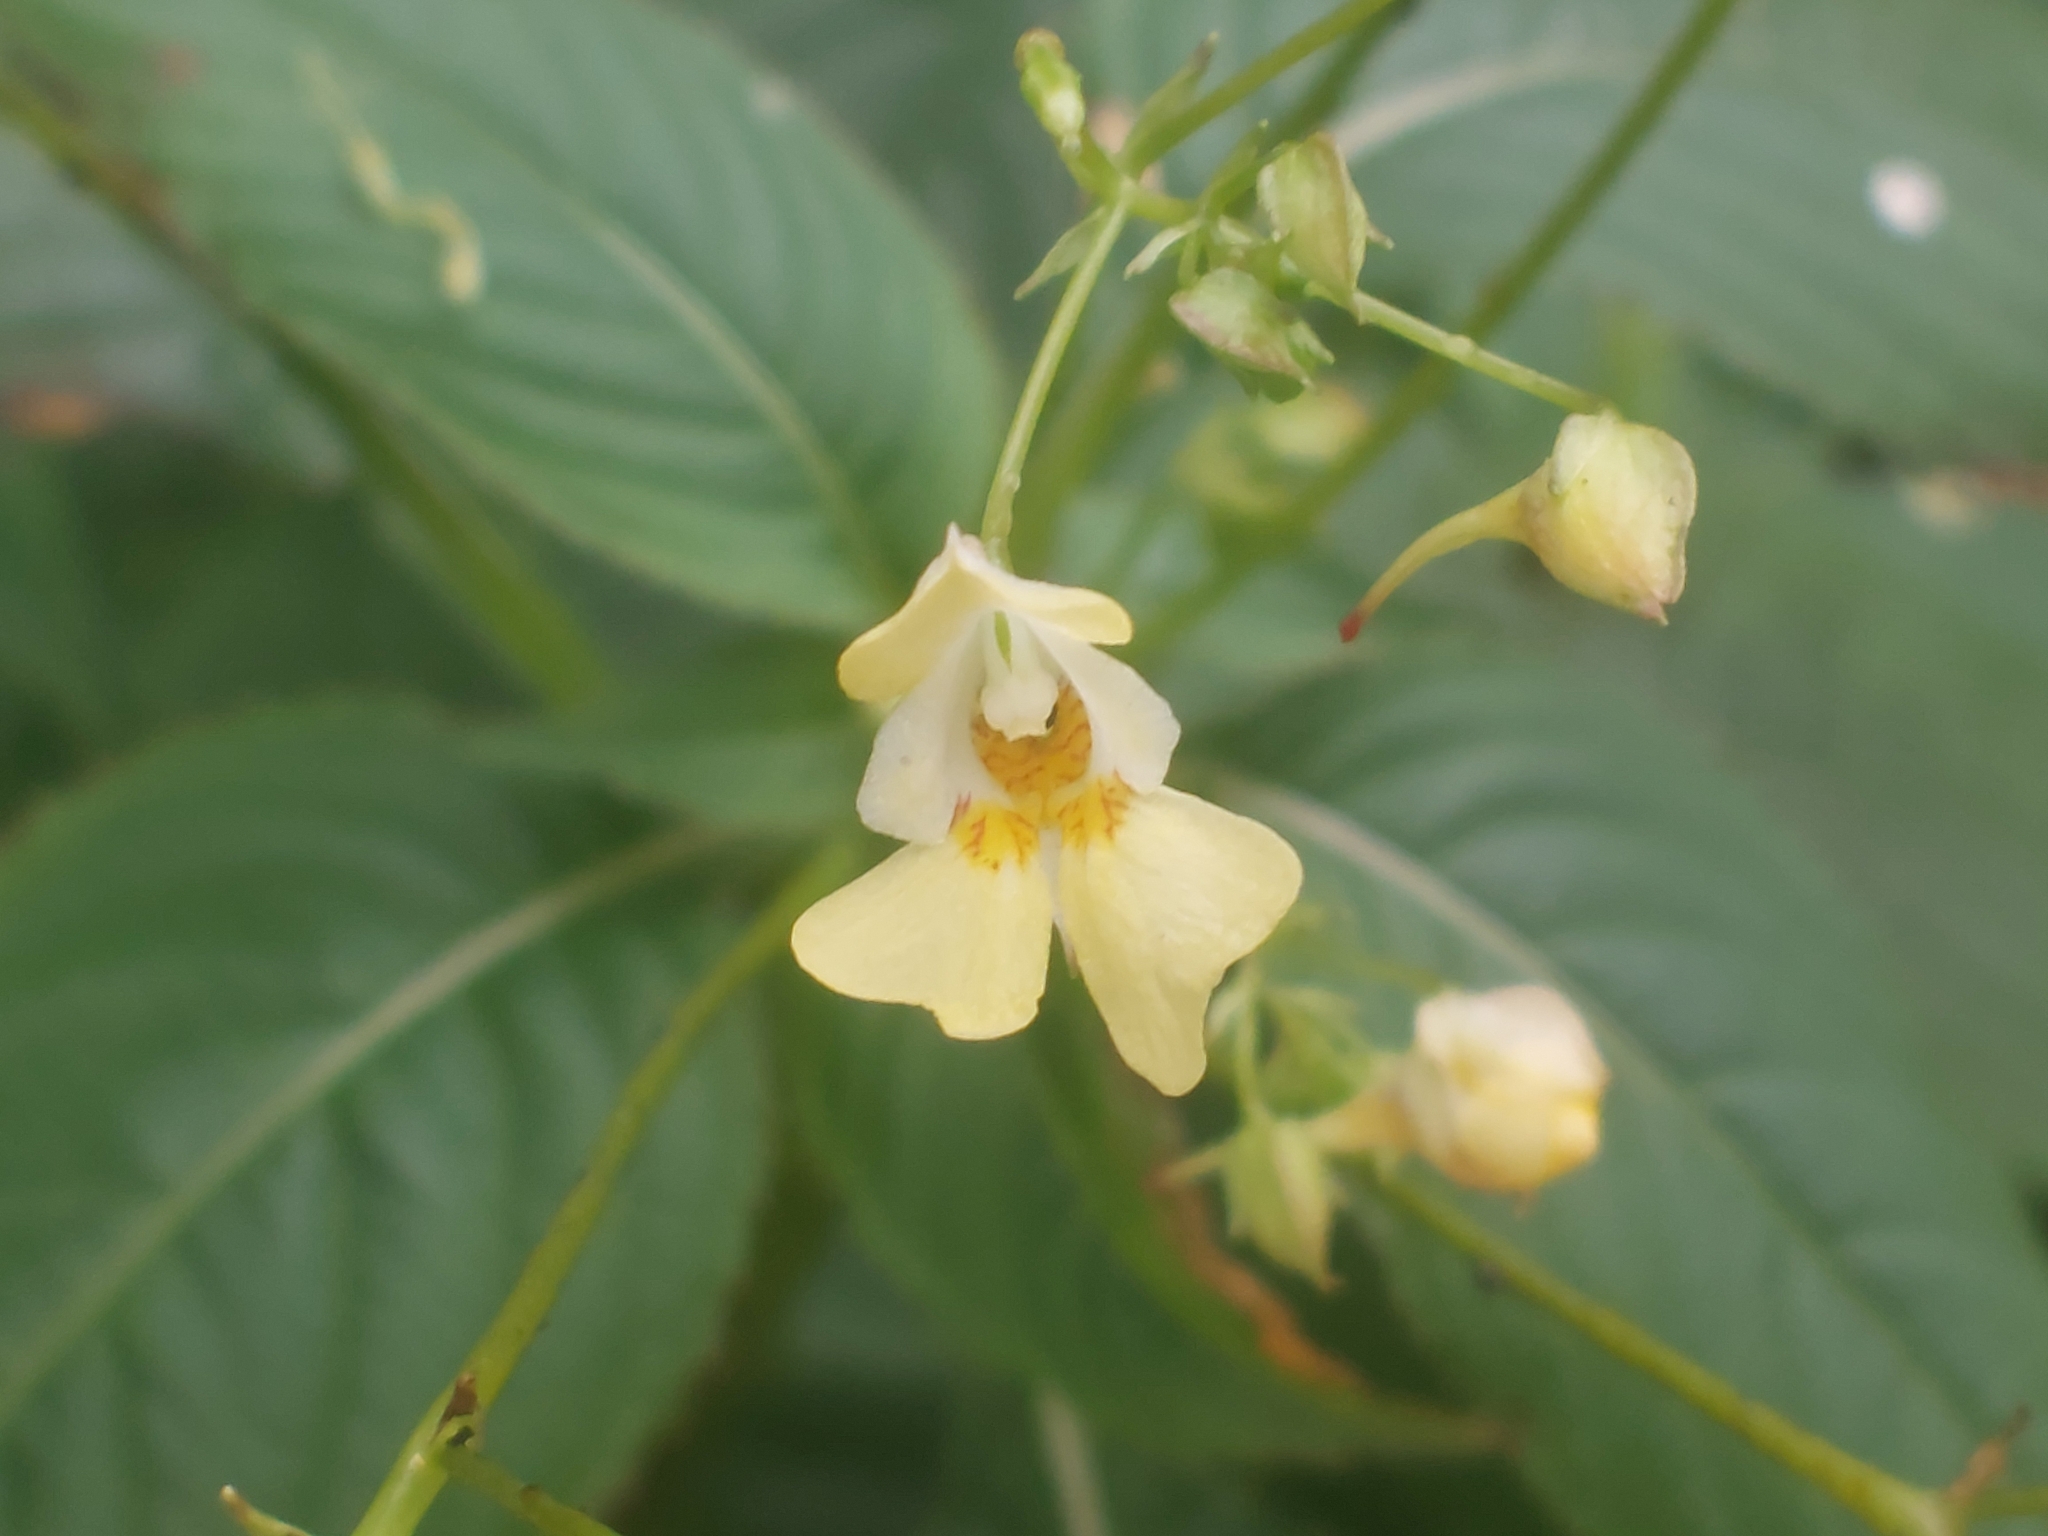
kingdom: Plantae
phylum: Tracheophyta
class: Magnoliopsida
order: Ericales
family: Balsaminaceae
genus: Impatiens
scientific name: Impatiens parviflora
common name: Small balsam
